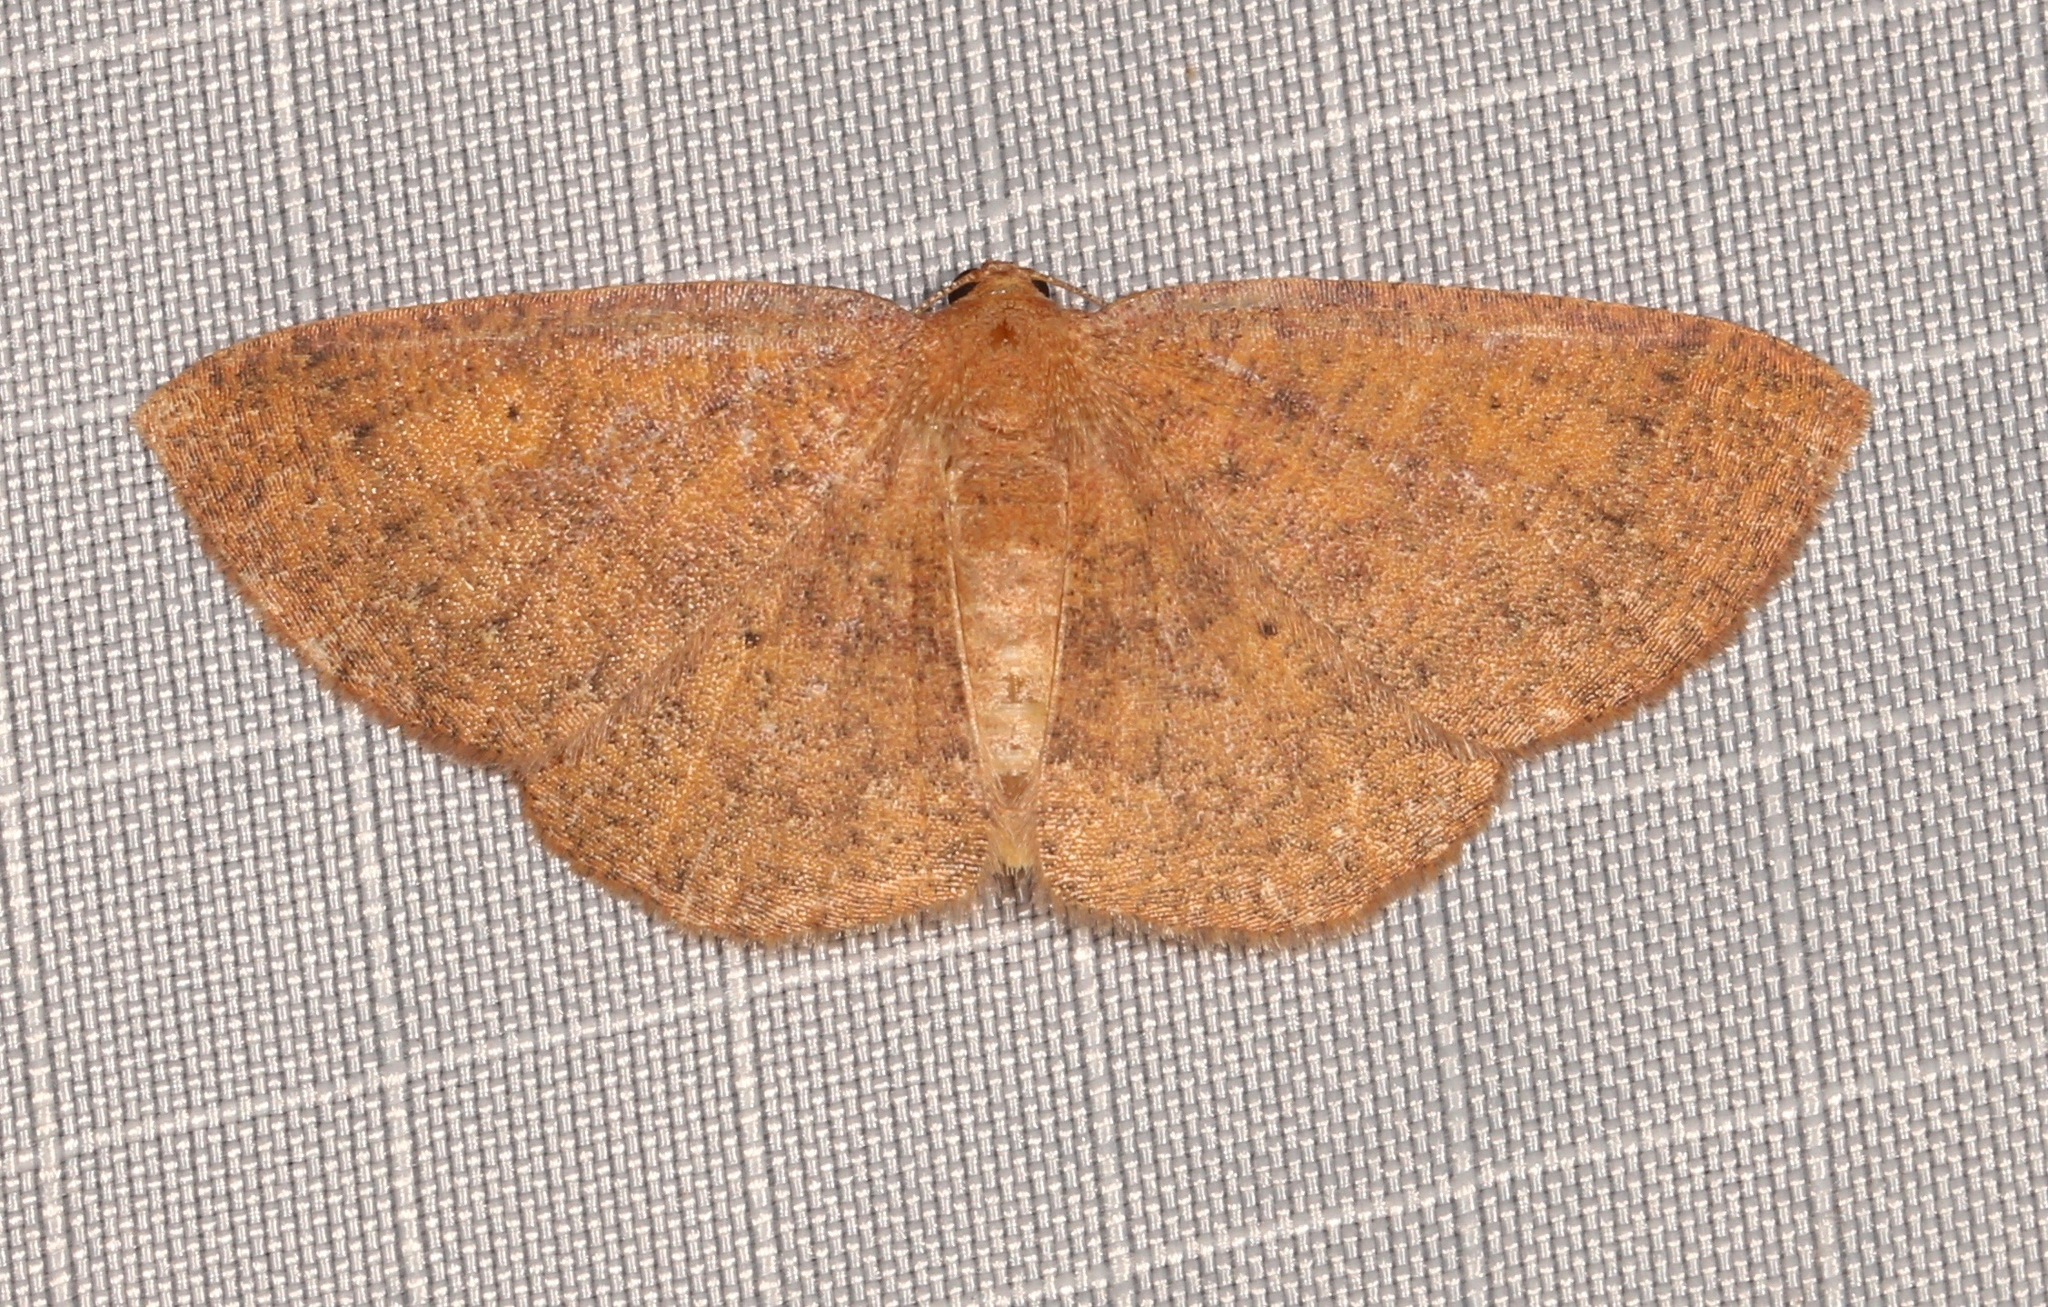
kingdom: Animalia
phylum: Arthropoda
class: Insecta
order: Lepidoptera
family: Geometridae
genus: Ilexia
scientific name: Ilexia intractata
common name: Black-dotted ruddy moth
